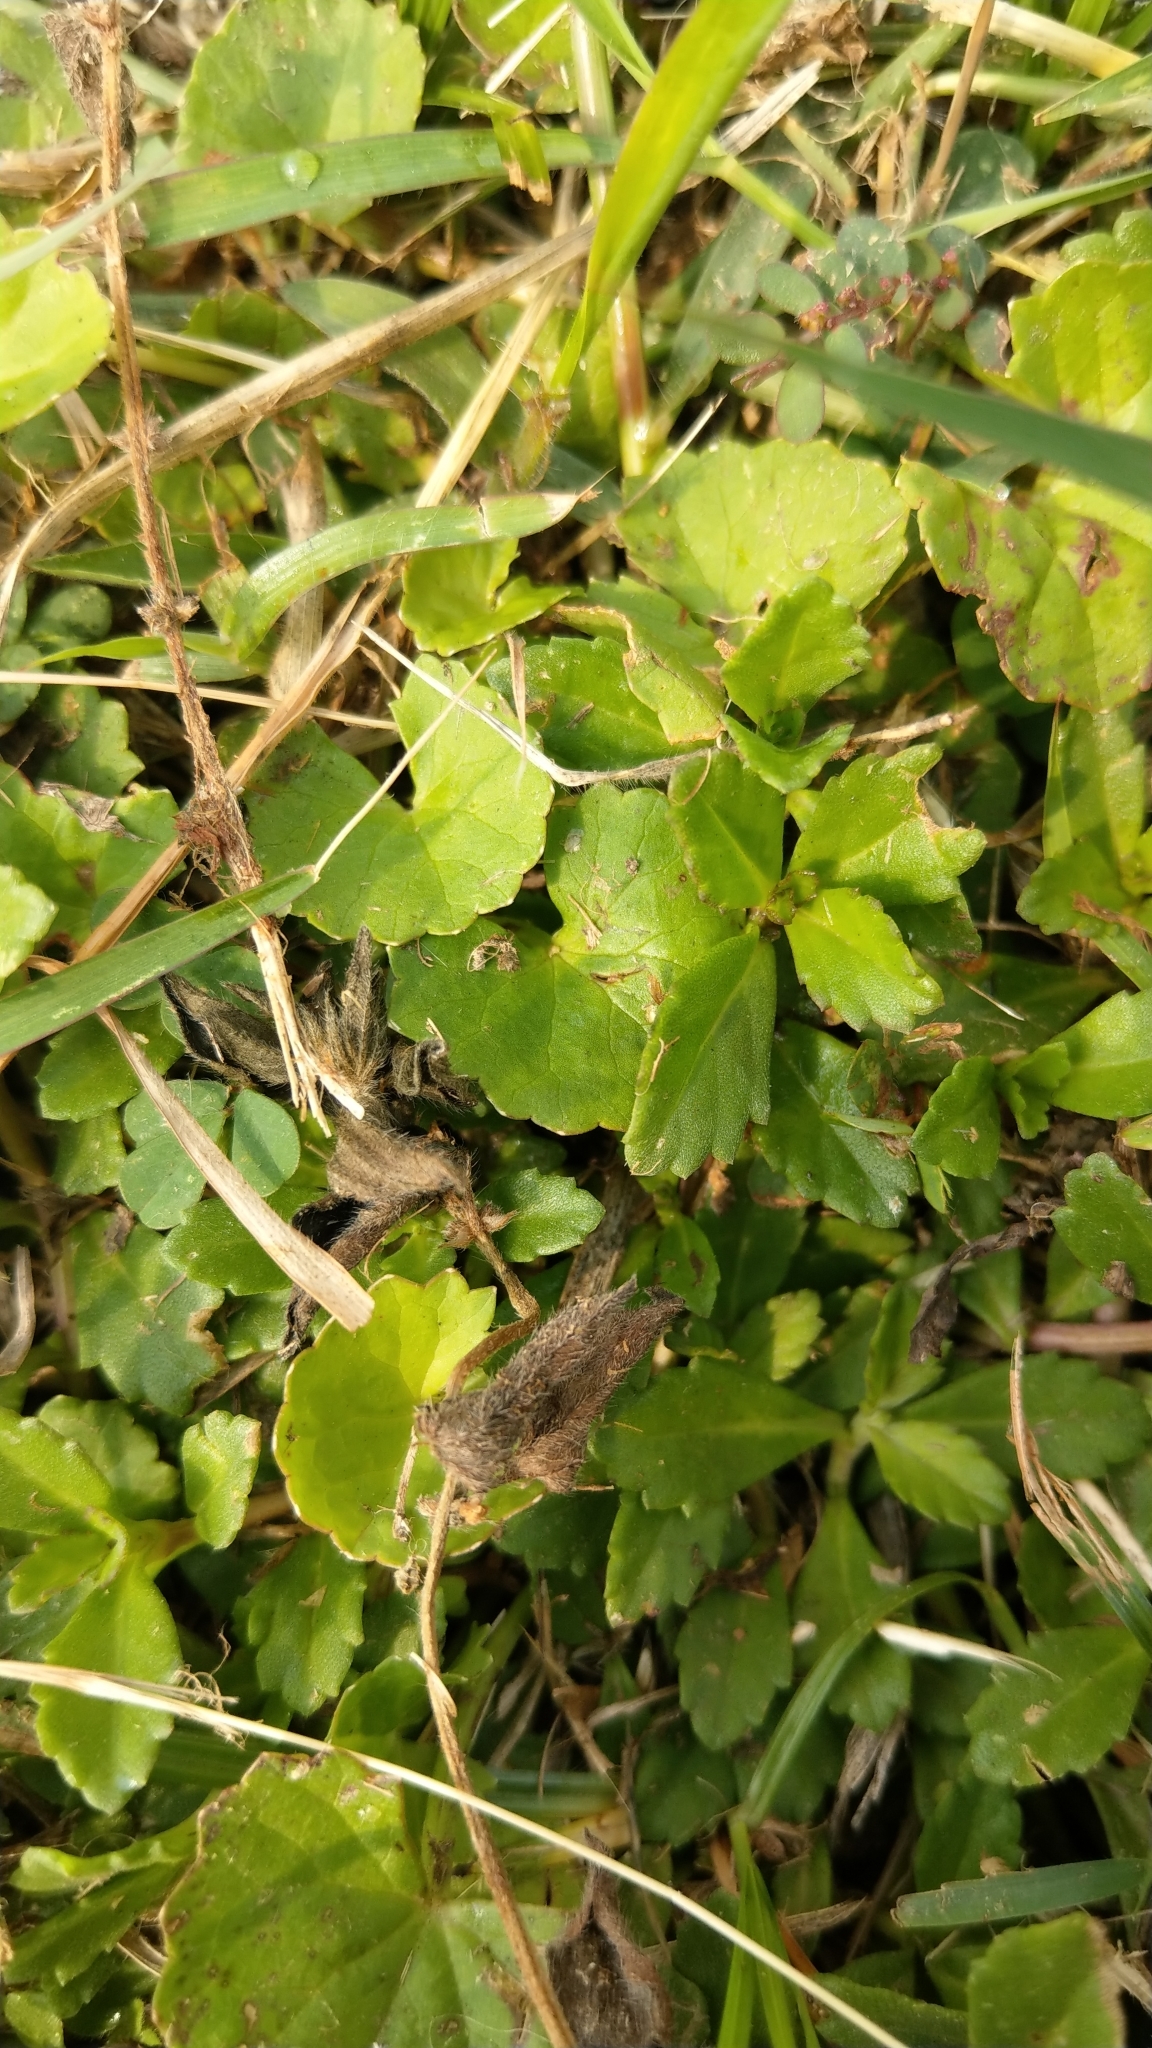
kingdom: Plantae
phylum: Tracheophyta
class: Magnoliopsida
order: Apiales
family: Apiaceae
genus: Centella
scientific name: Centella asiatica
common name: Spadeleaf
